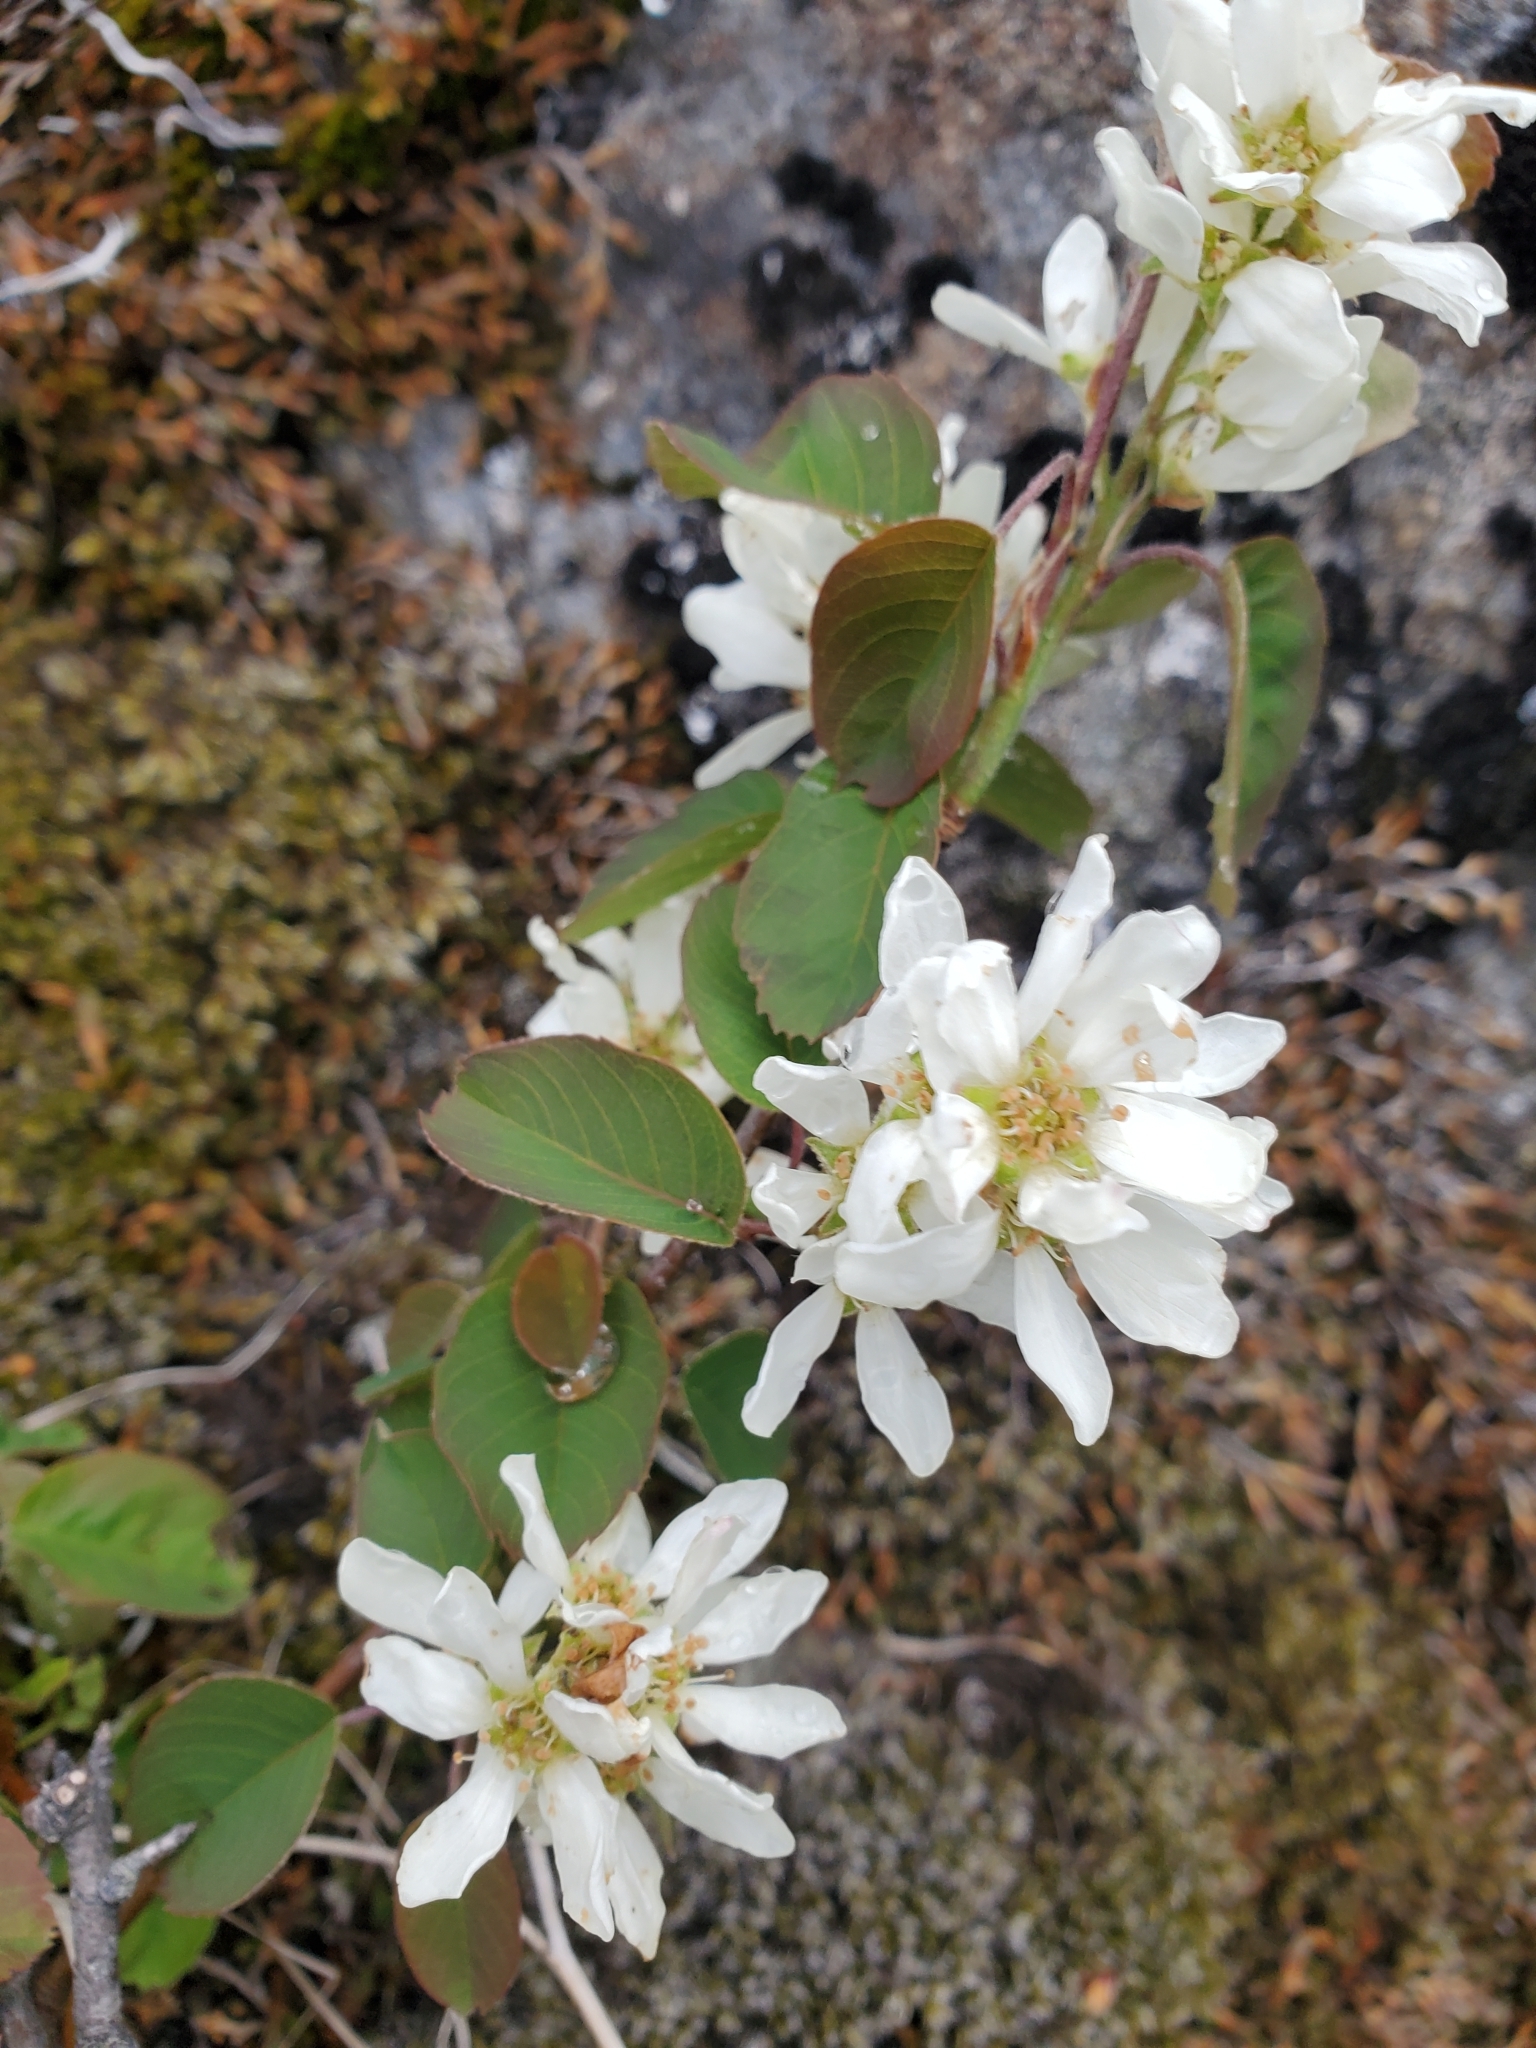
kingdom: Plantae
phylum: Tracheophyta
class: Magnoliopsida
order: Rosales
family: Rosaceae
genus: Amelanchier
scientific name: Amelanchier alnifolia
